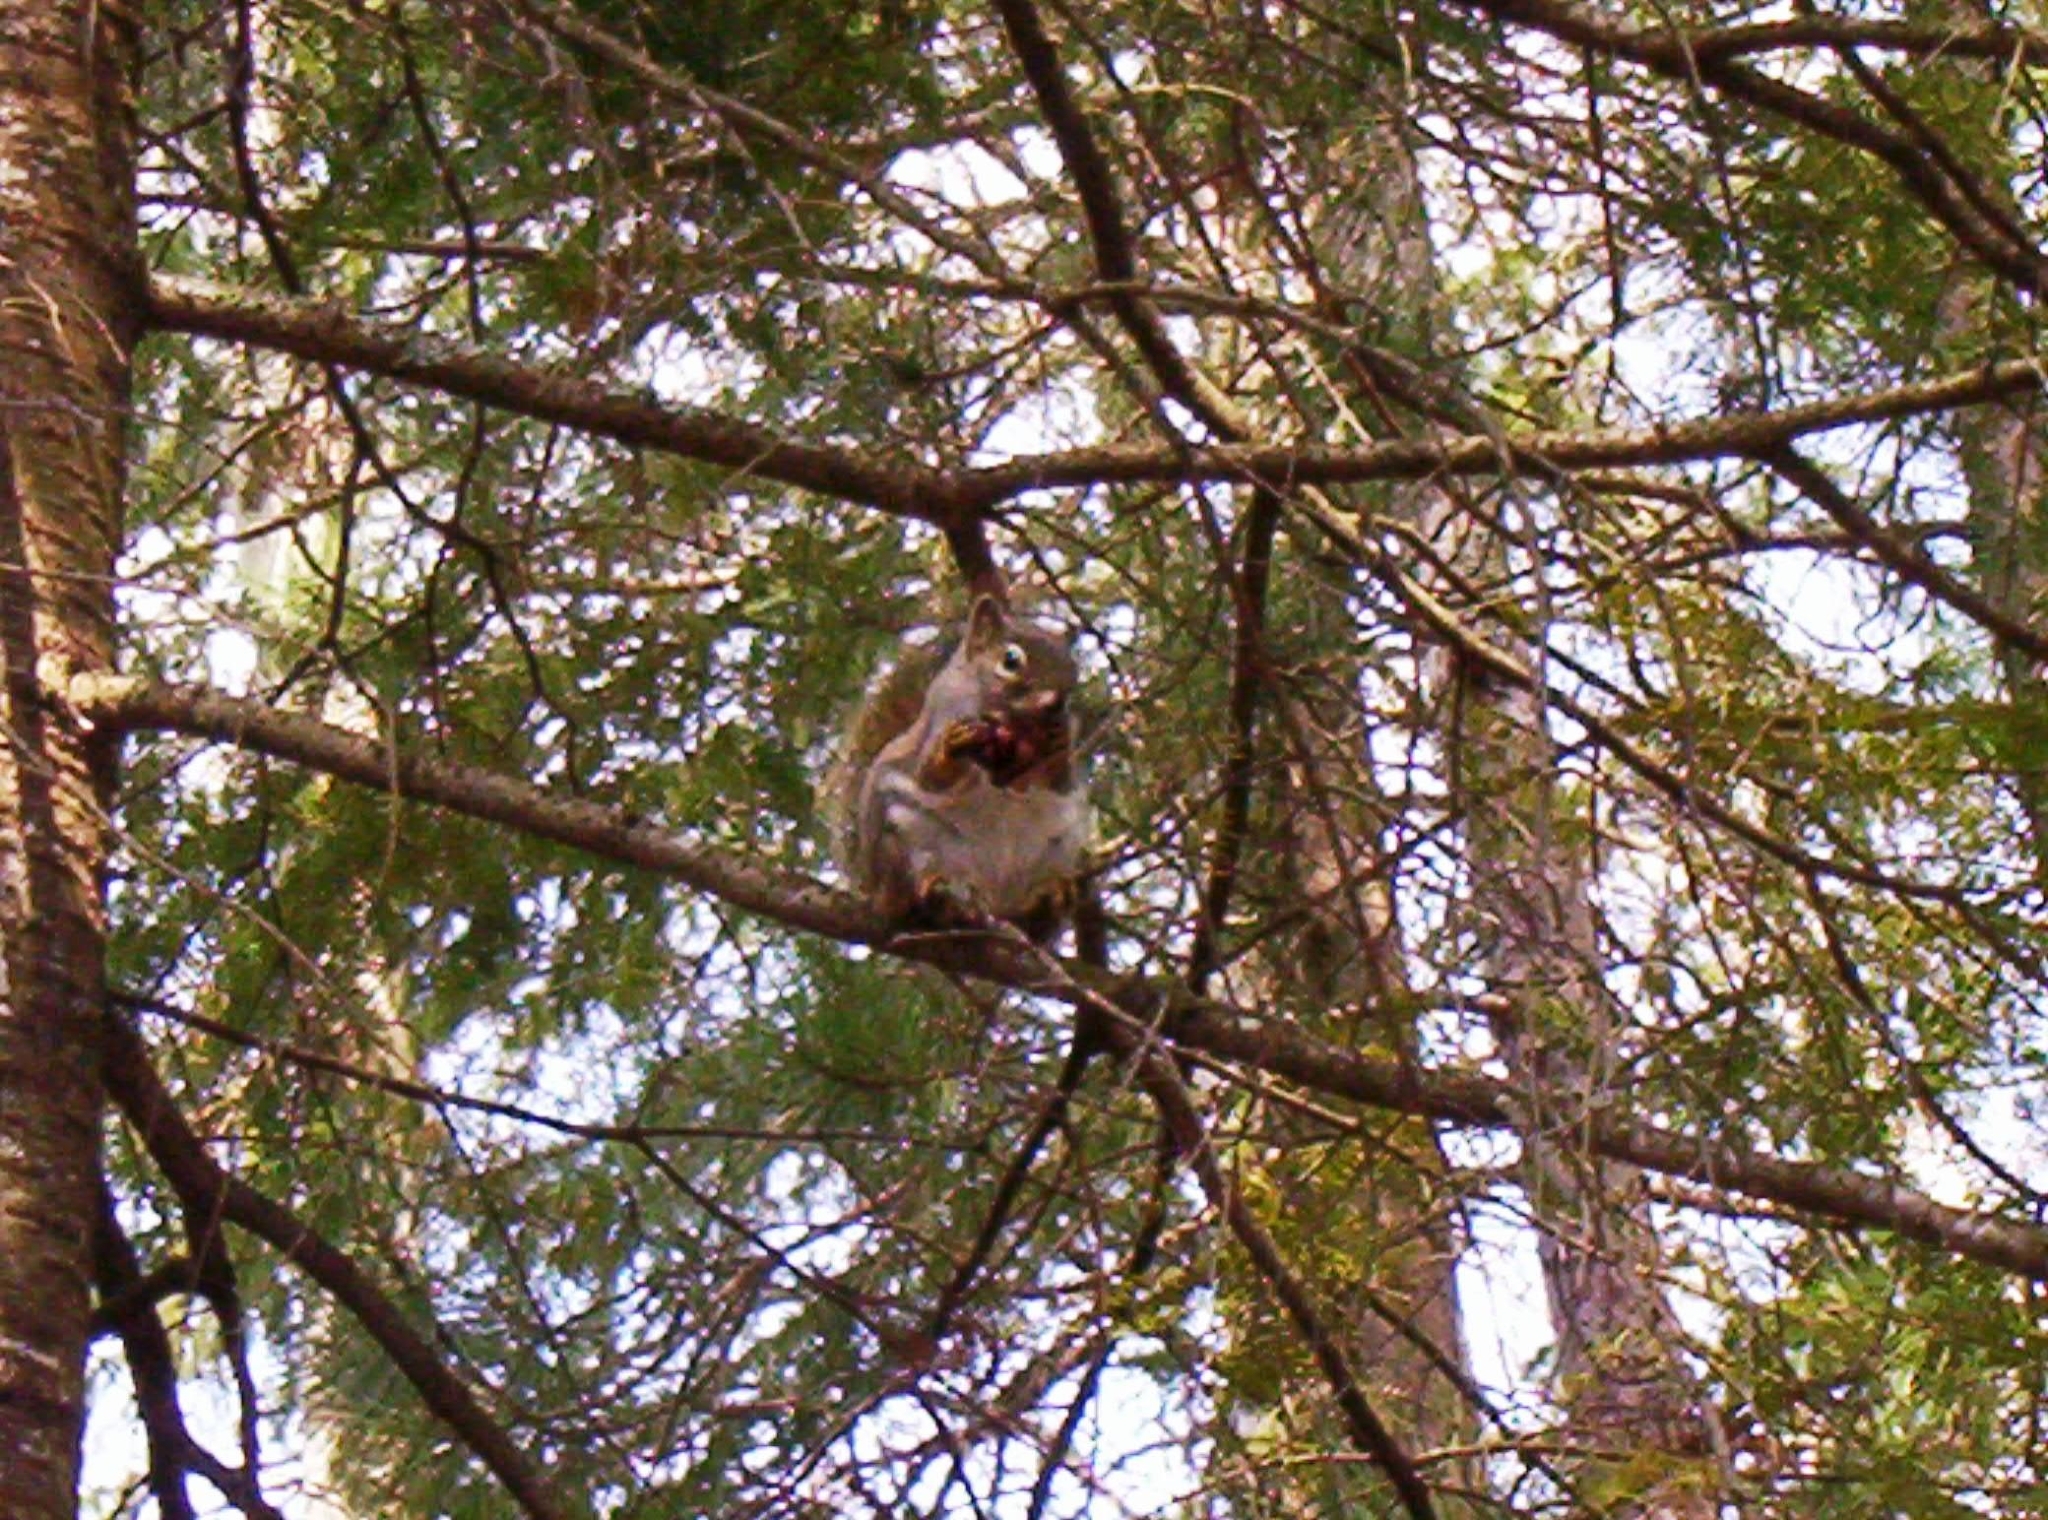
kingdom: Animalia
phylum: Chordata
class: Mammalia
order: Rodentia
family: Sciuridae
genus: Sciurus
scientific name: Sciurus carolinensis
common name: Eastern gray squirrel
